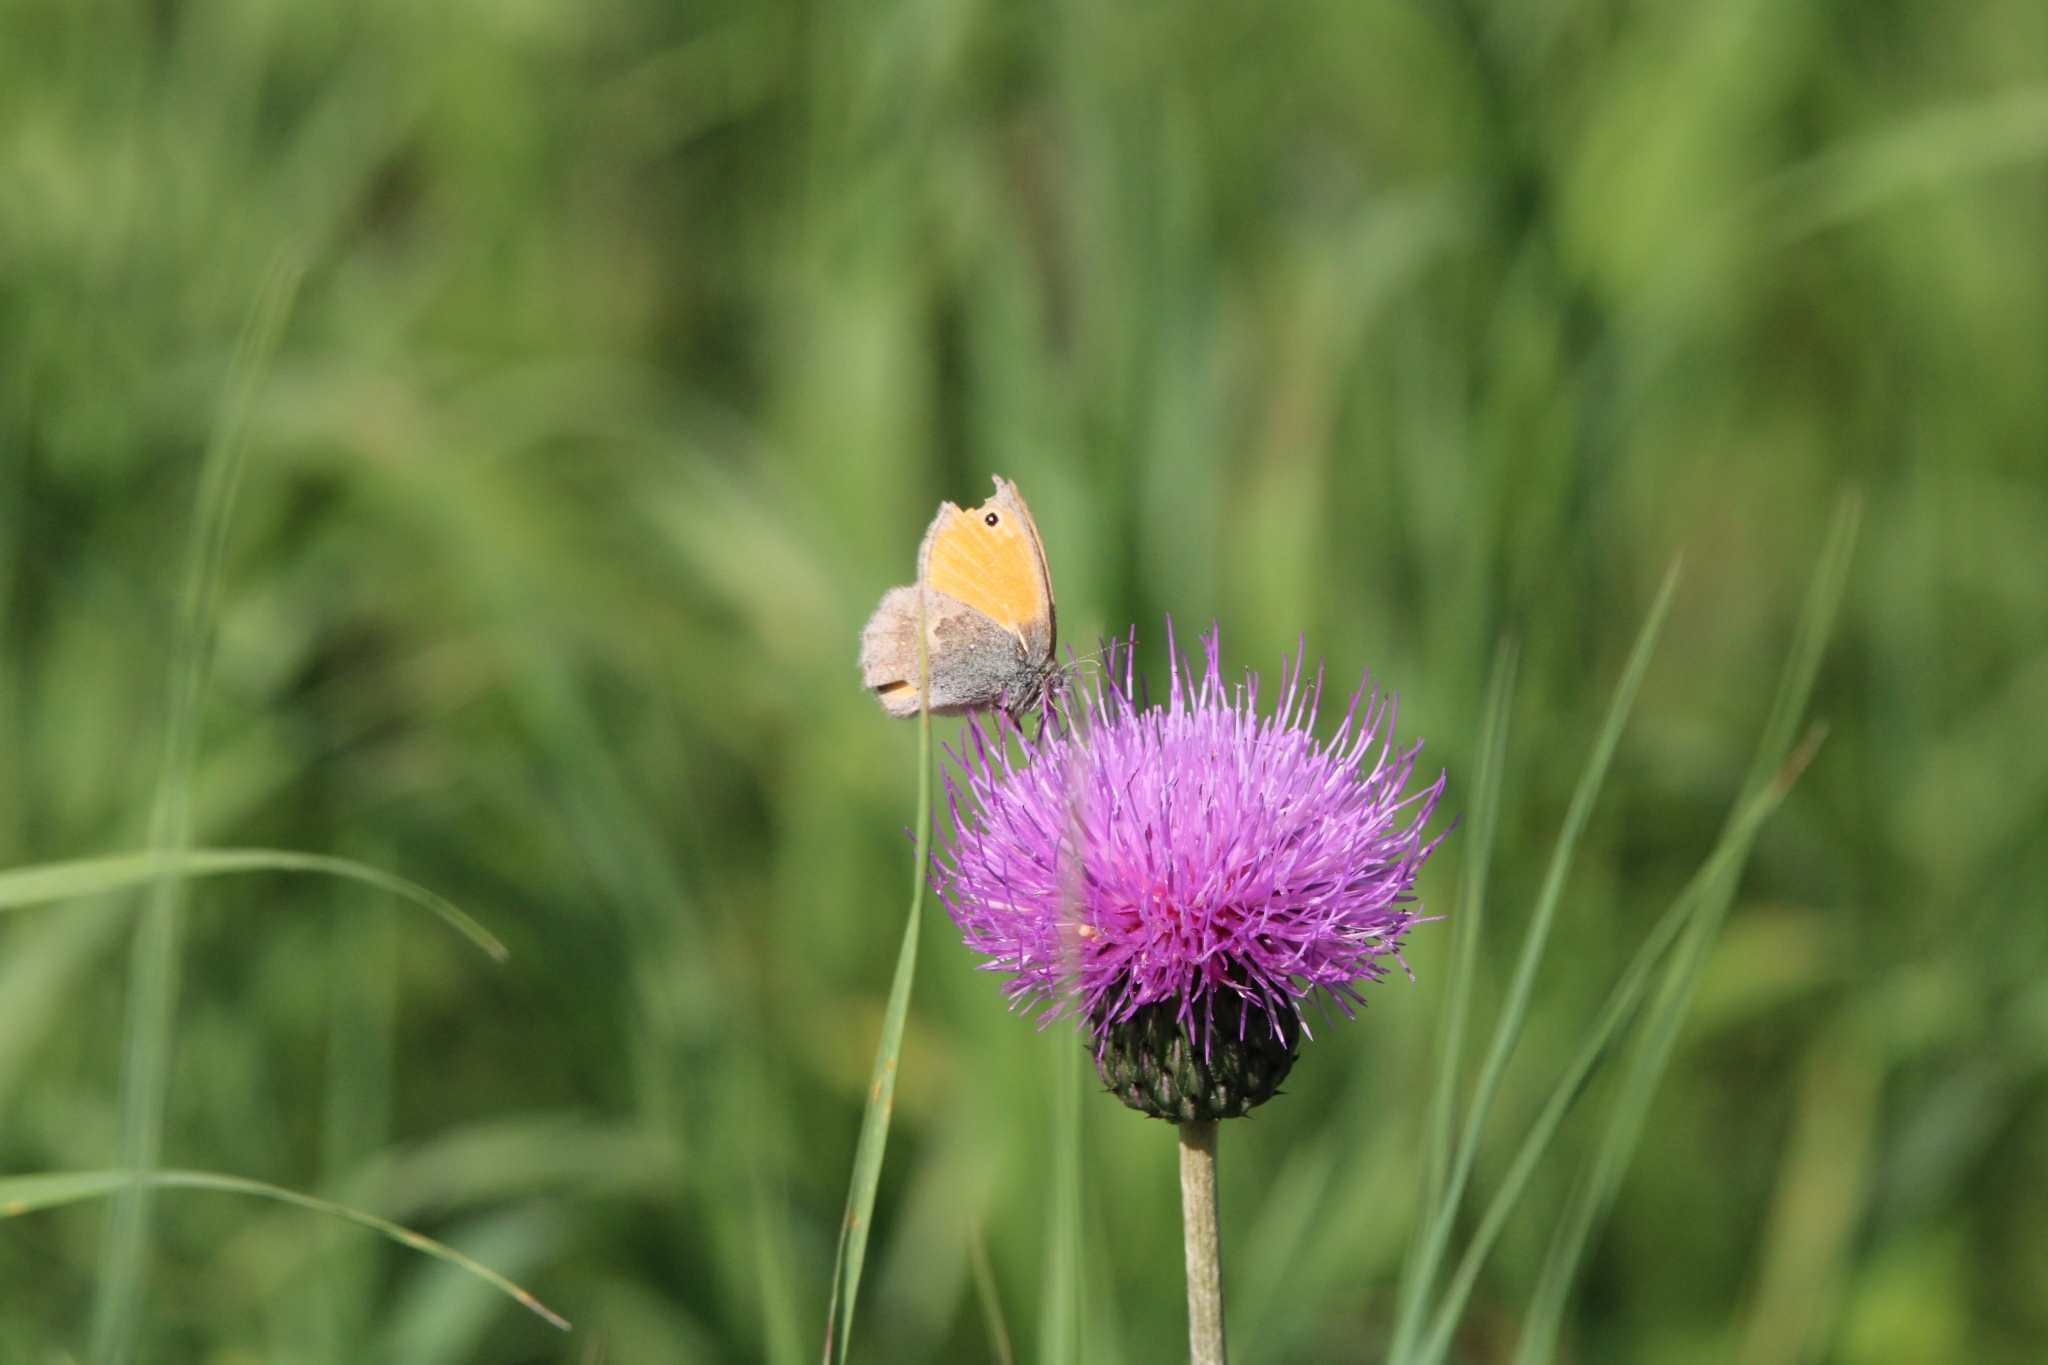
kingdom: Animalia
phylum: Arthropoda
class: Insecta
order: Lepidoptera
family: Nymphalidae
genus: Coenonympha
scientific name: Coenonympha pamphilus
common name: Small heath
